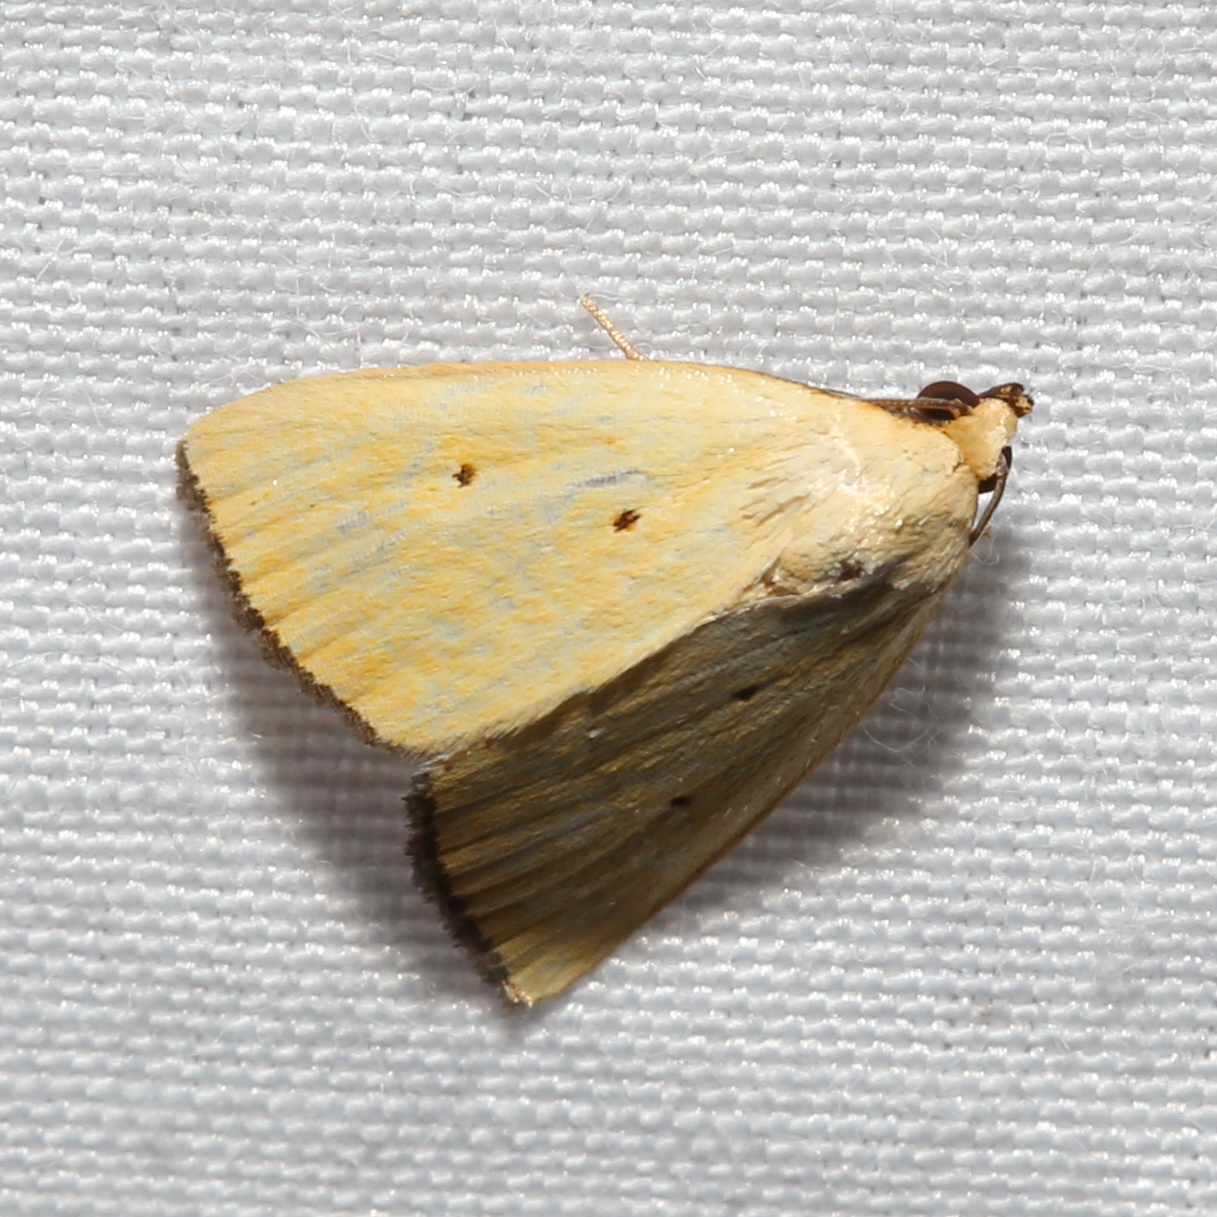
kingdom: Animalia
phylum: Arthropoda
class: Insecta
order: Lepidoptera
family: Noctuidae
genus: Marimatha
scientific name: Marimatha nigrofimbria
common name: Black-bordered lemon moth
